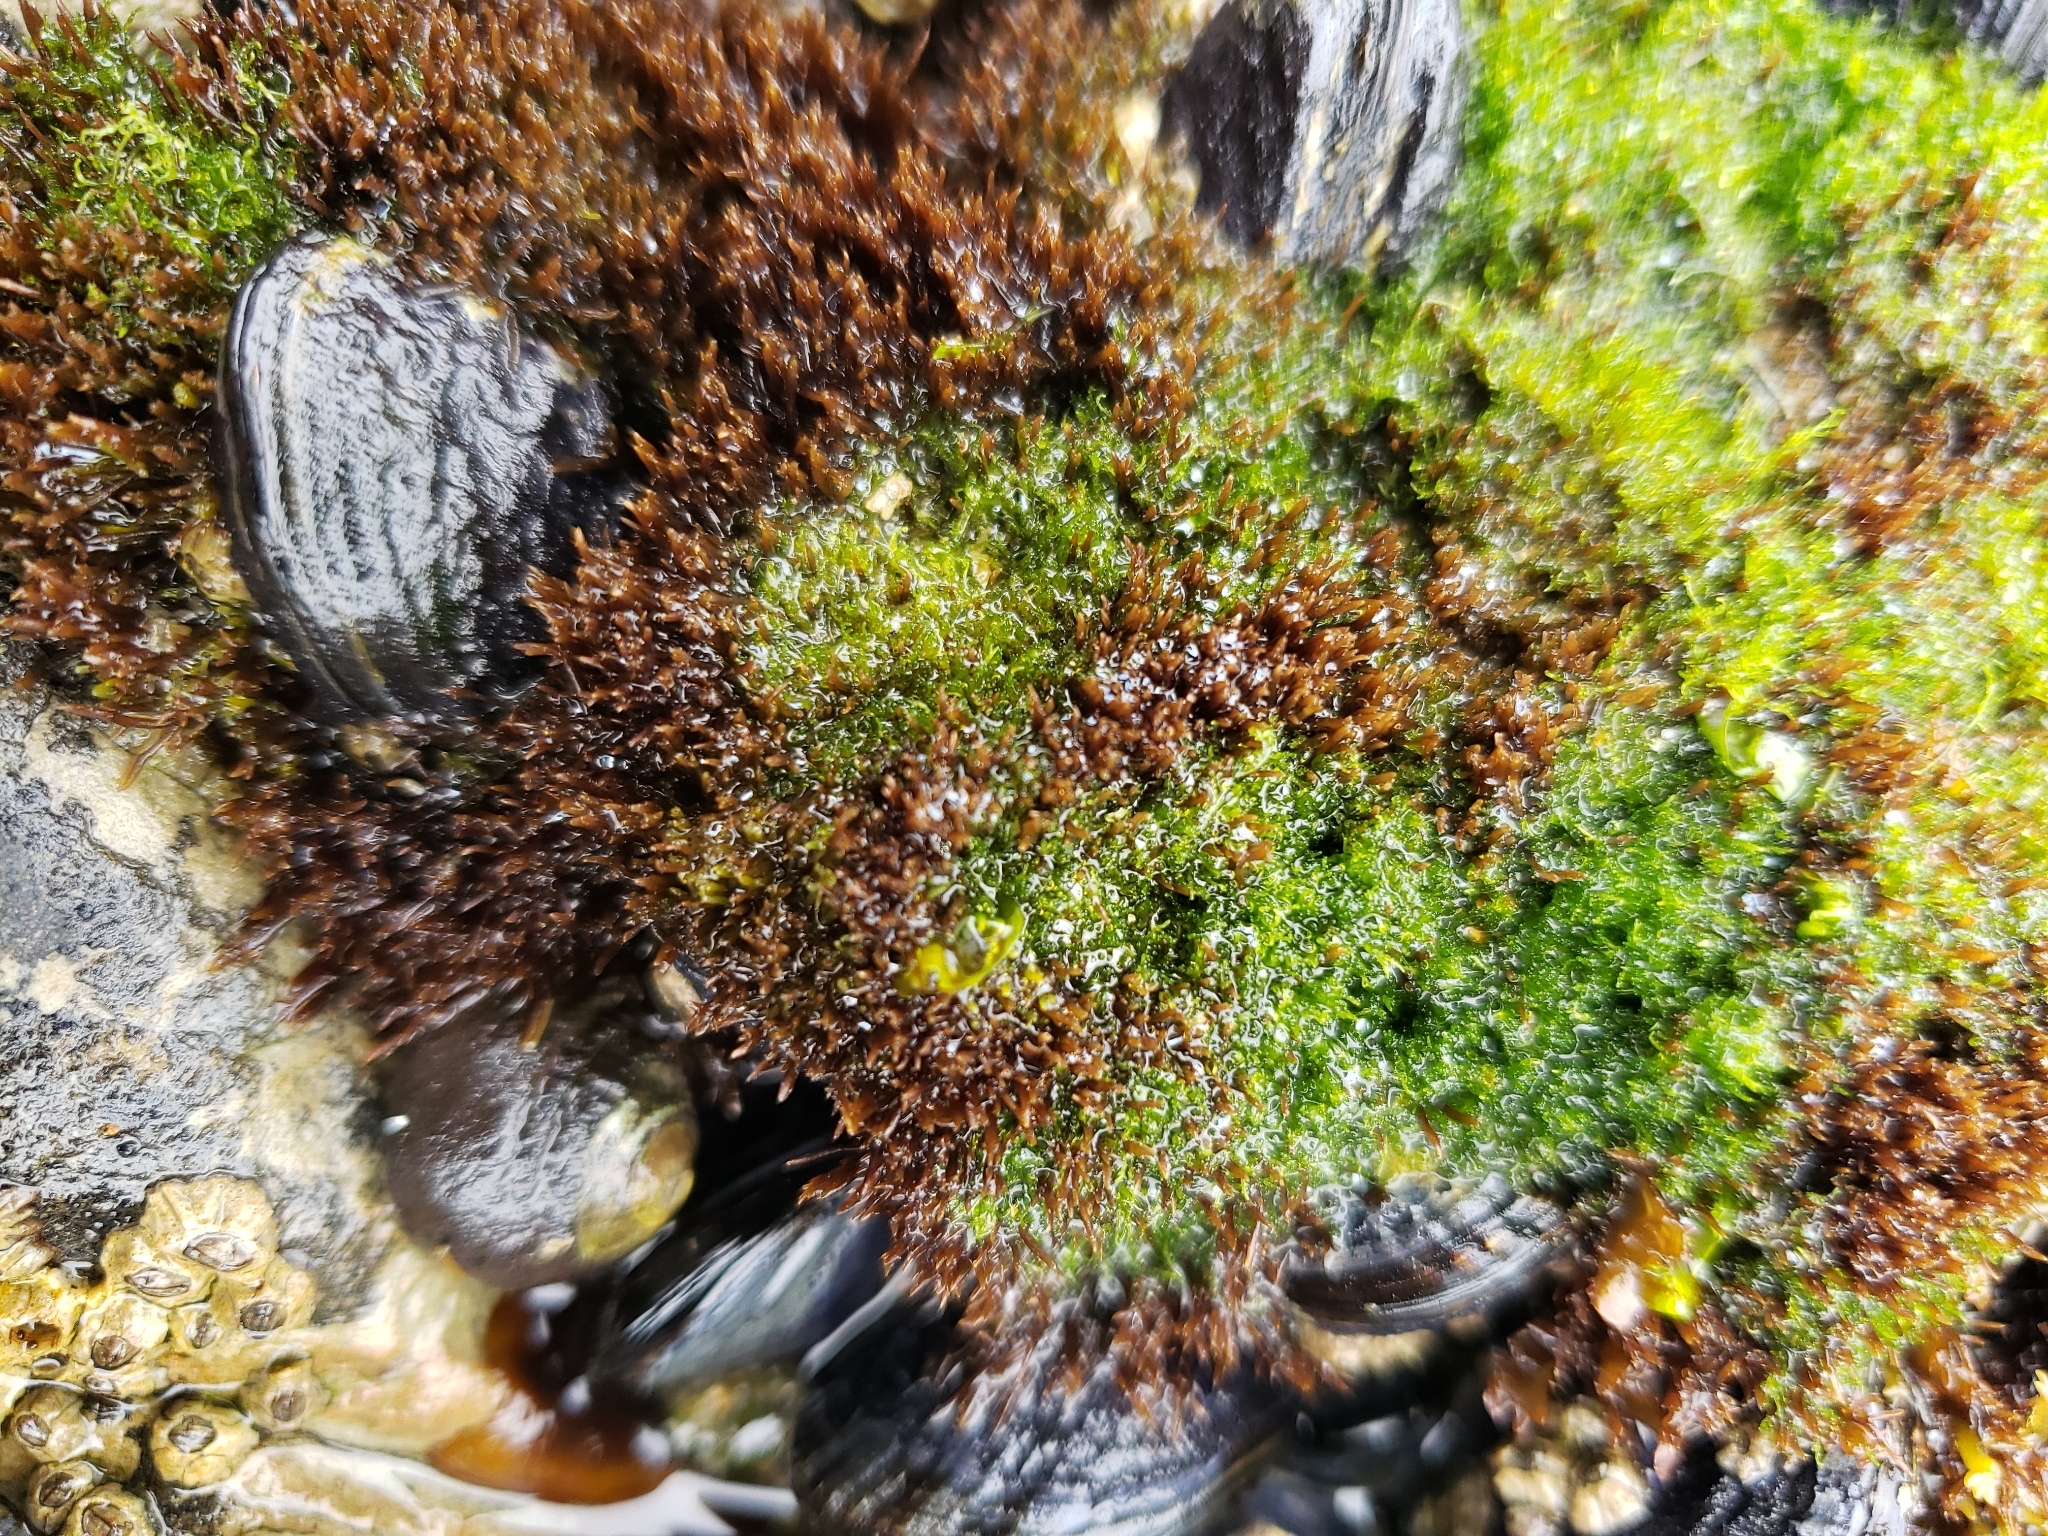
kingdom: Plantae
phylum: Chlorophyta
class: Ulvophyceae
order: Cladophorales
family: Cladophoraceae
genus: Cladophora
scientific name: Cladophora columbiana
